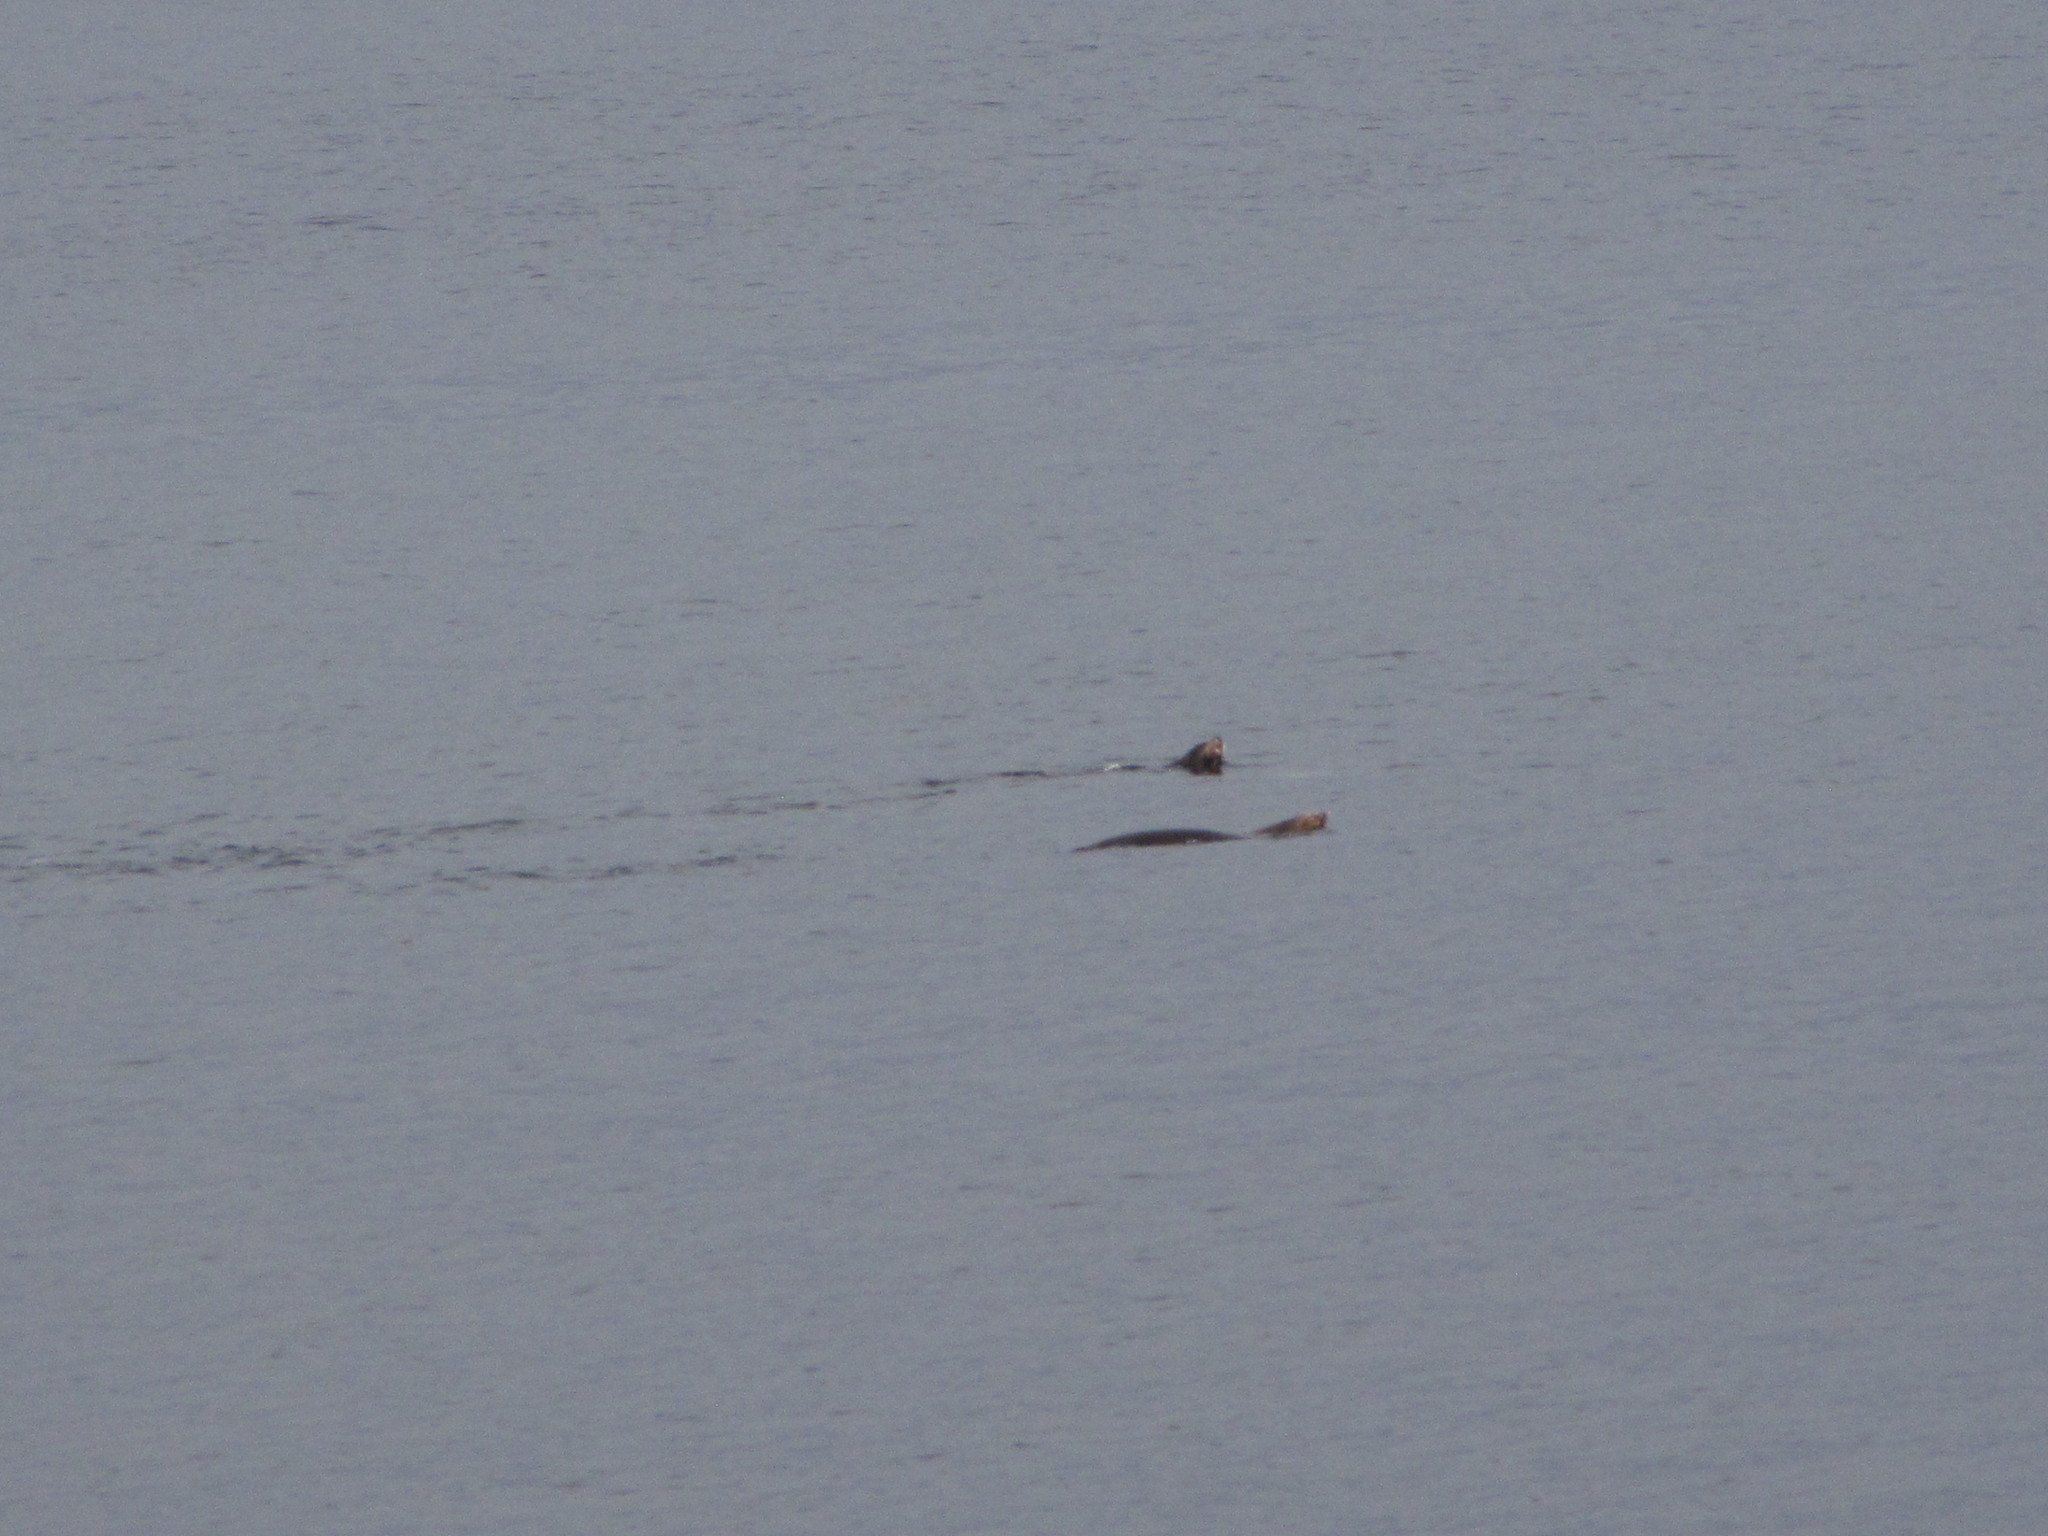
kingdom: Animalia
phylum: Chordata
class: Mammalia
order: Carnivora
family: Otariidae
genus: Zalophus
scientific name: Zalophus californianus
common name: California sea lion
